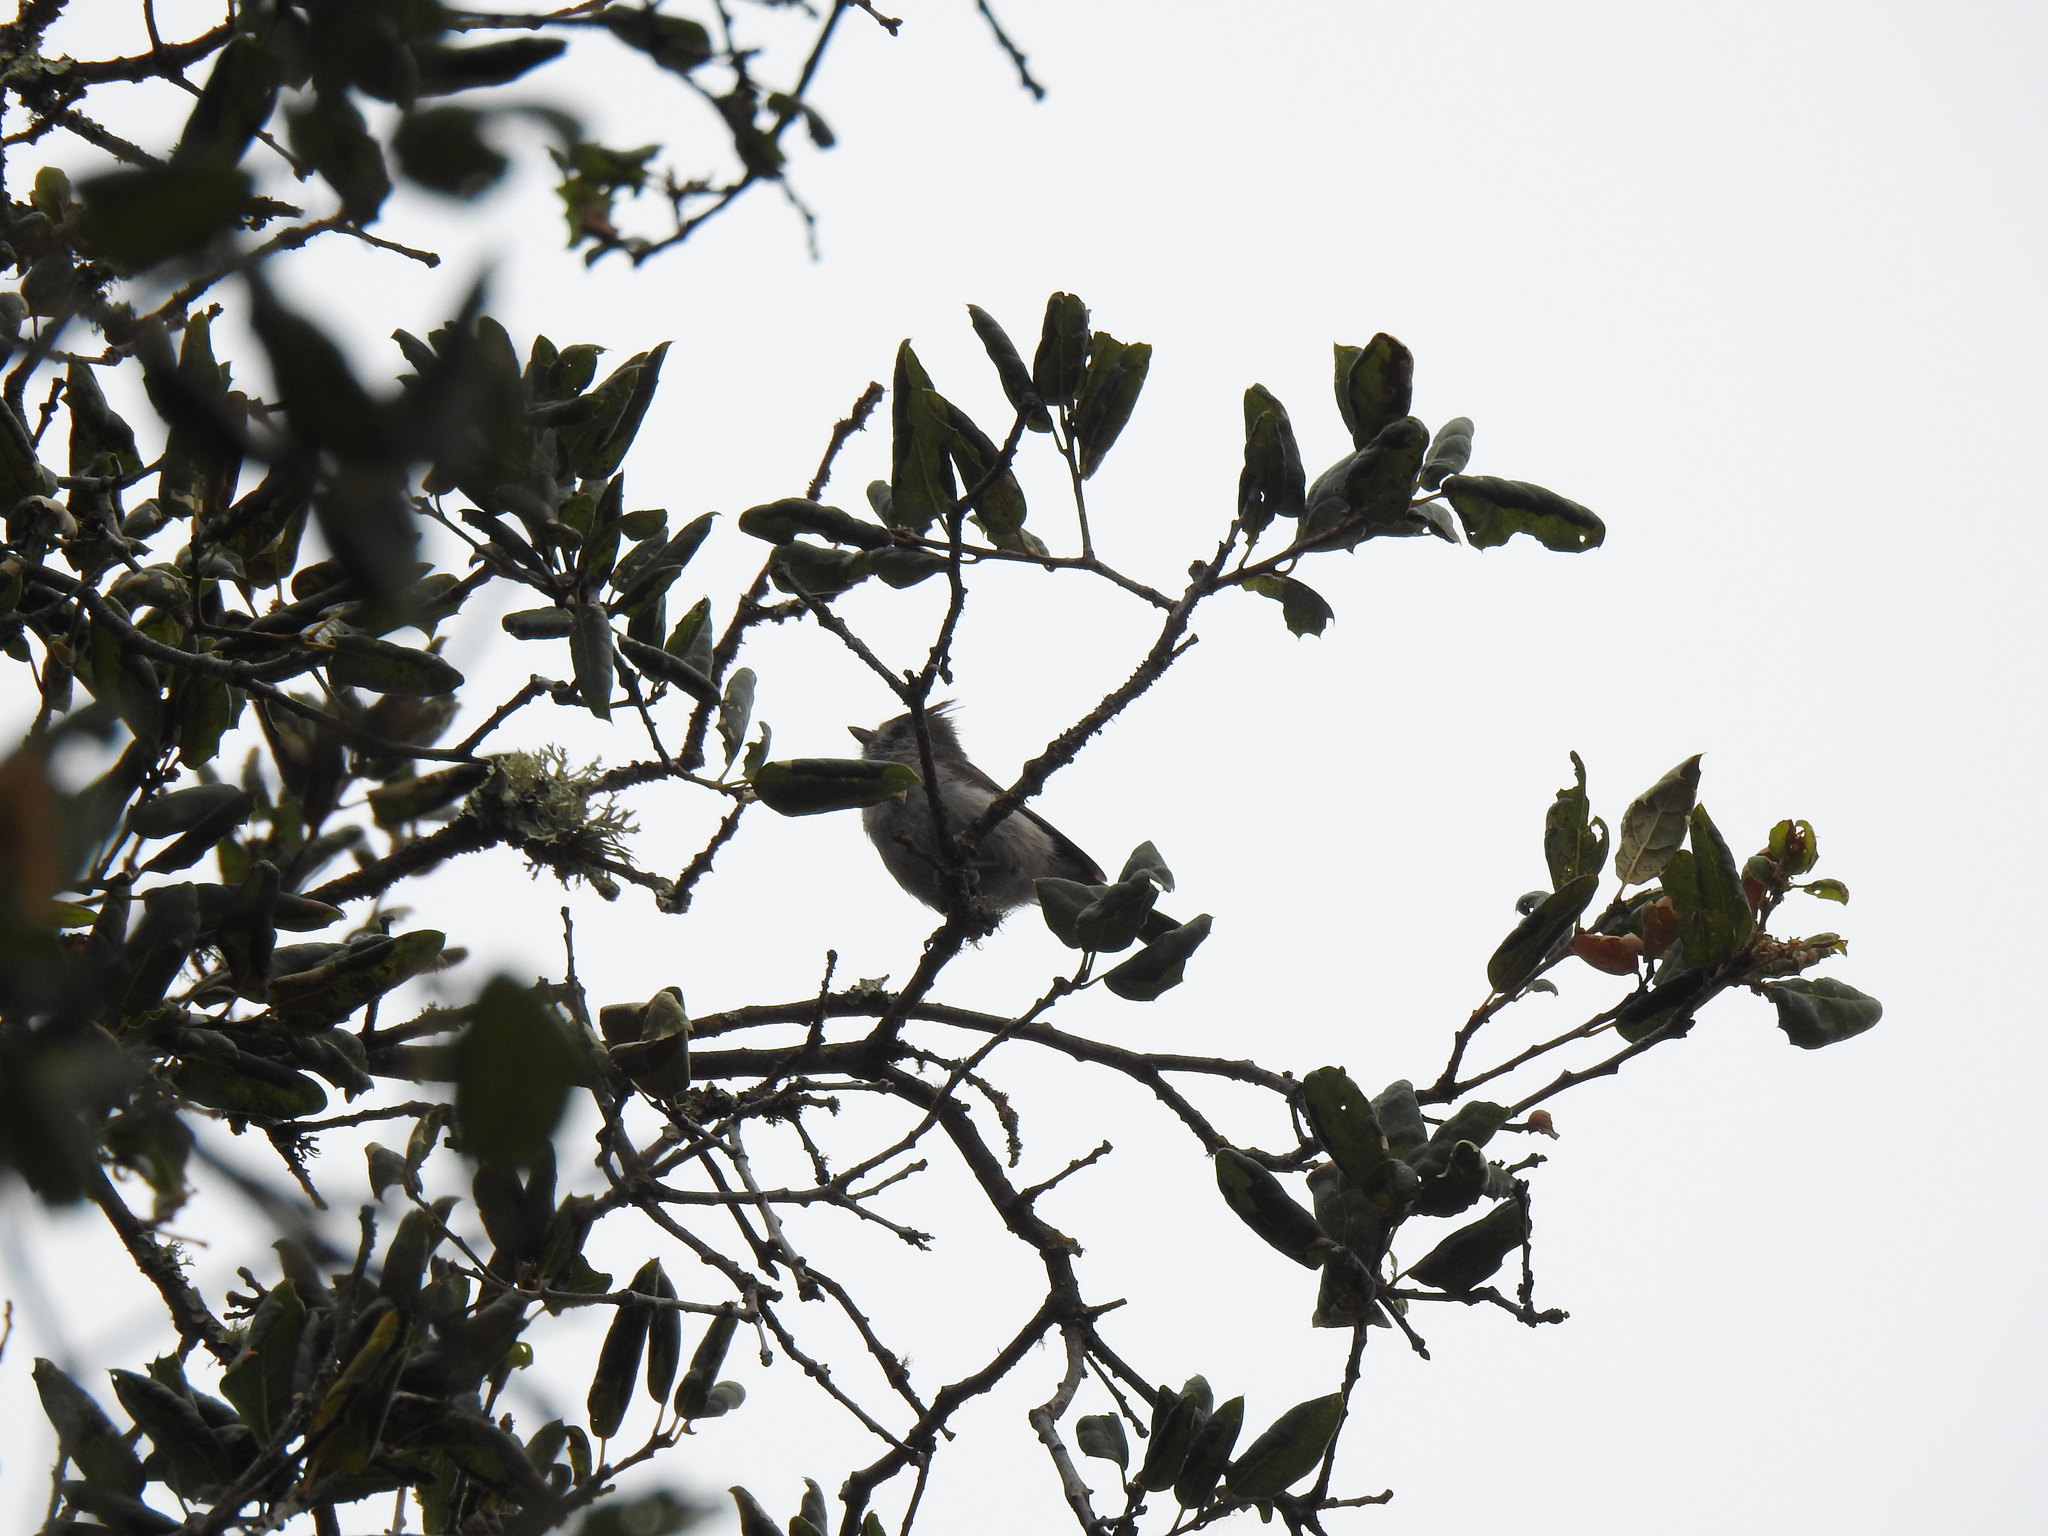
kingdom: Animalia
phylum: Chordata
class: Aves
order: Passeriformes
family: Paridae
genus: Baeolophus
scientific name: Baeolophus inornatus
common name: Oak titmouse
